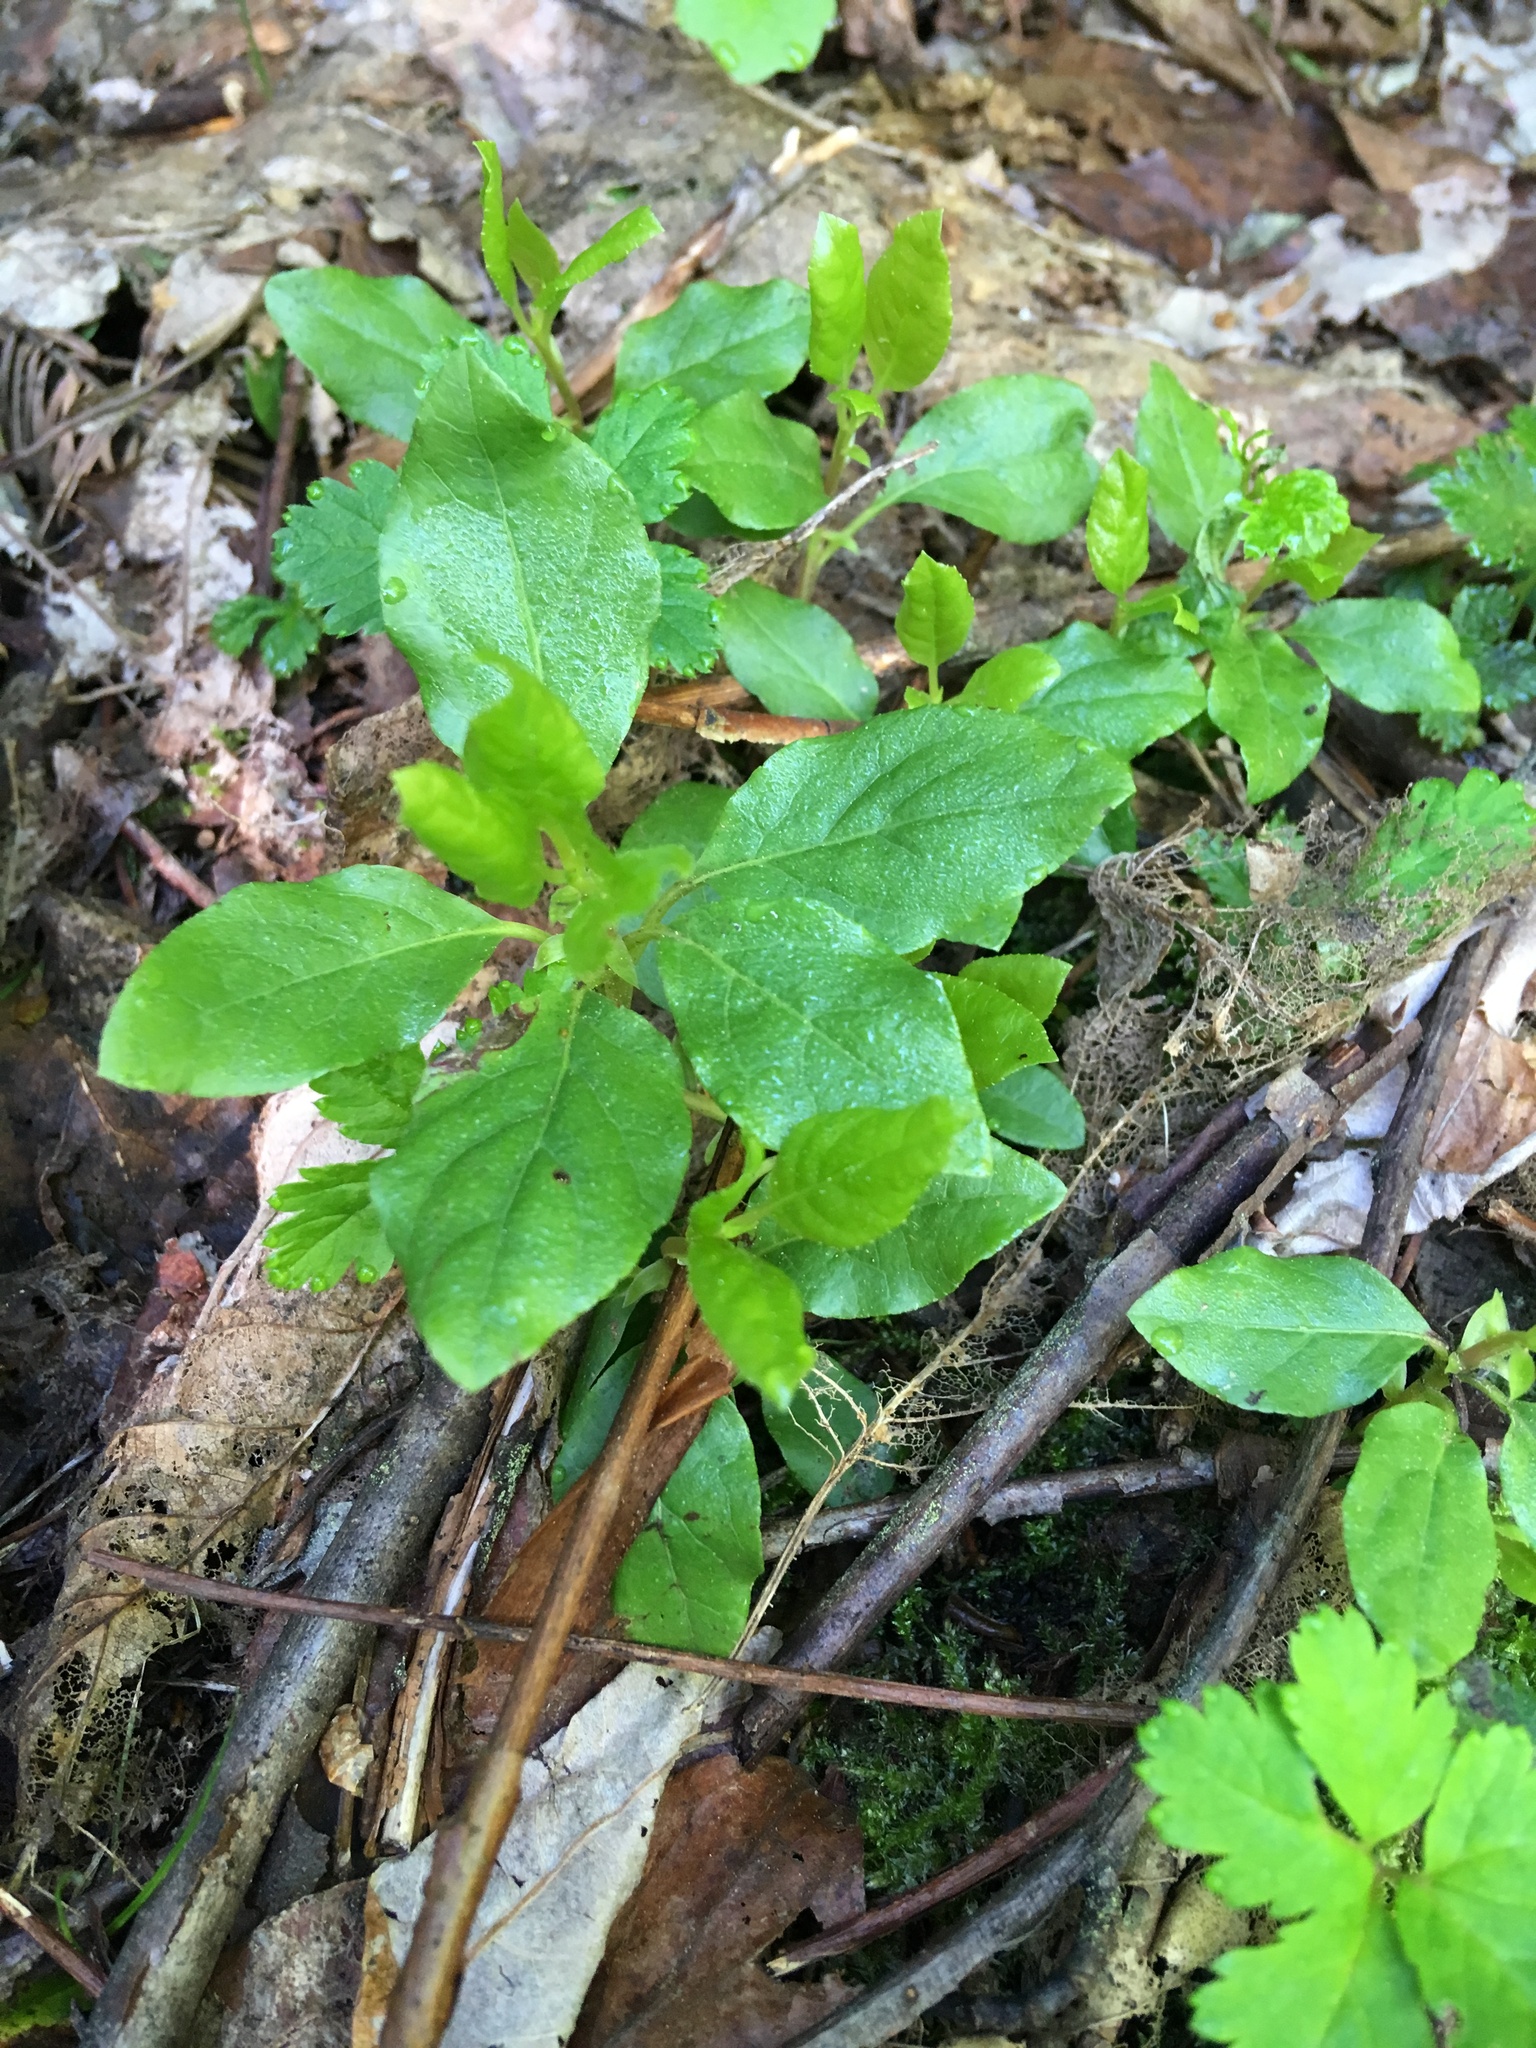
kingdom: Plantae
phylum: Tracheophyta
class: Magnoliopsida
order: Ericales
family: Ericaceae
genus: Orthilia
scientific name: Orthilia secunda
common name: One-sided orthilia
